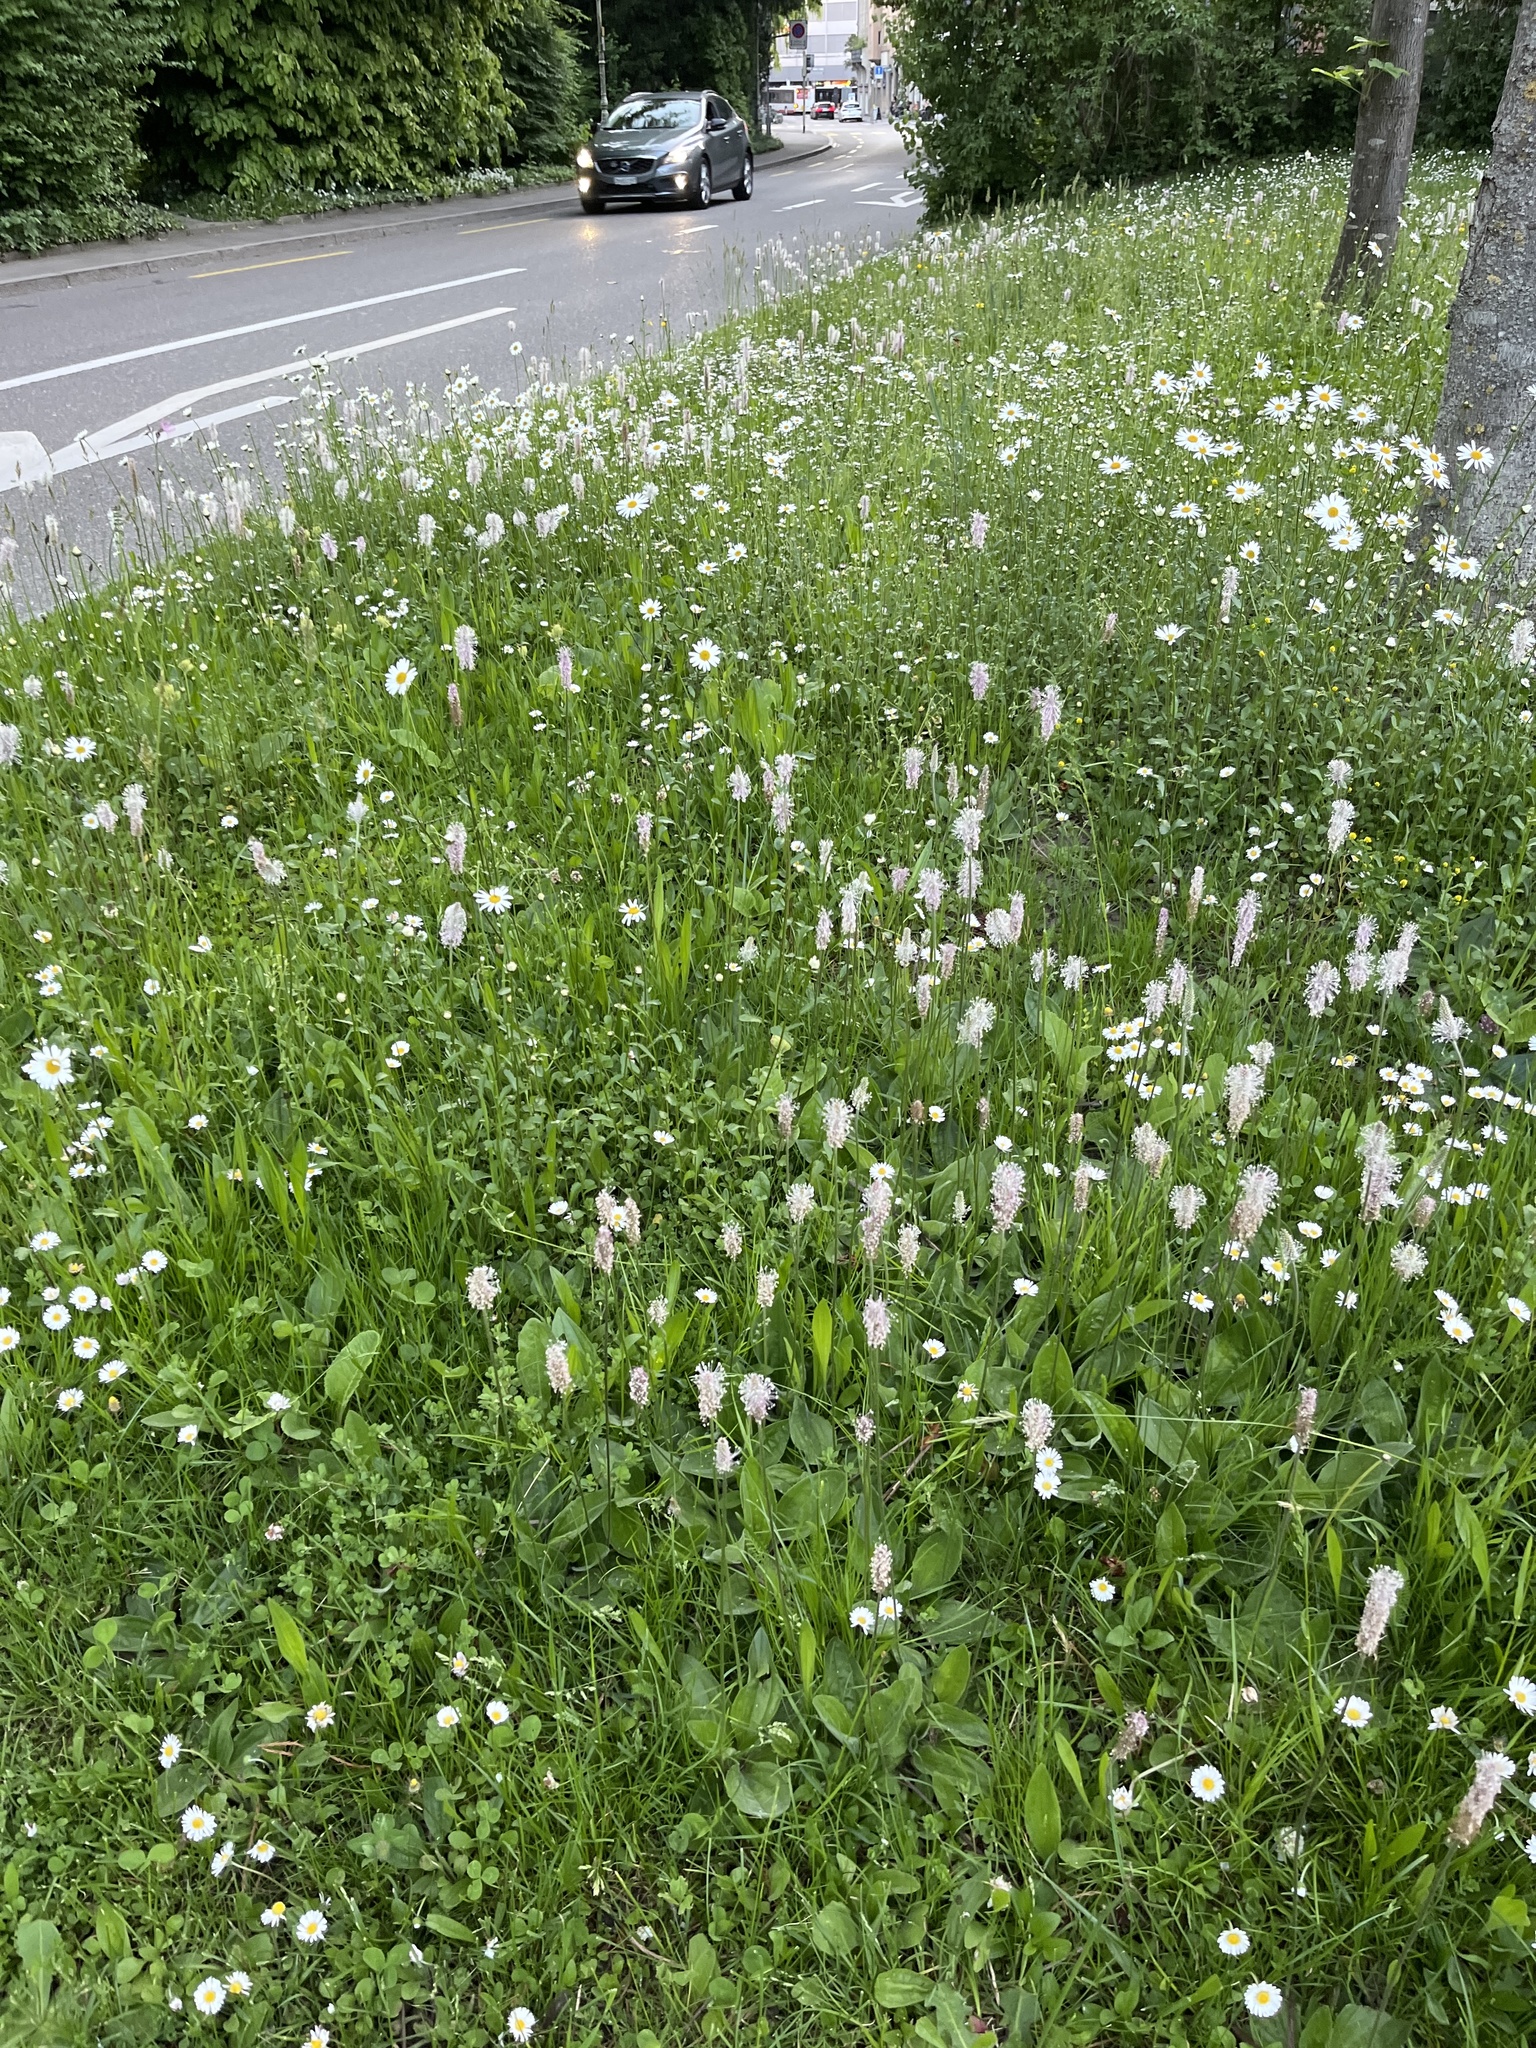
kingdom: Plantae
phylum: Tracheophyta
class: Magnoliopsida
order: Lamiales
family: Plantaginaceae
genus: Plantago
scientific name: Plantago media
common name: Hoary plantain
